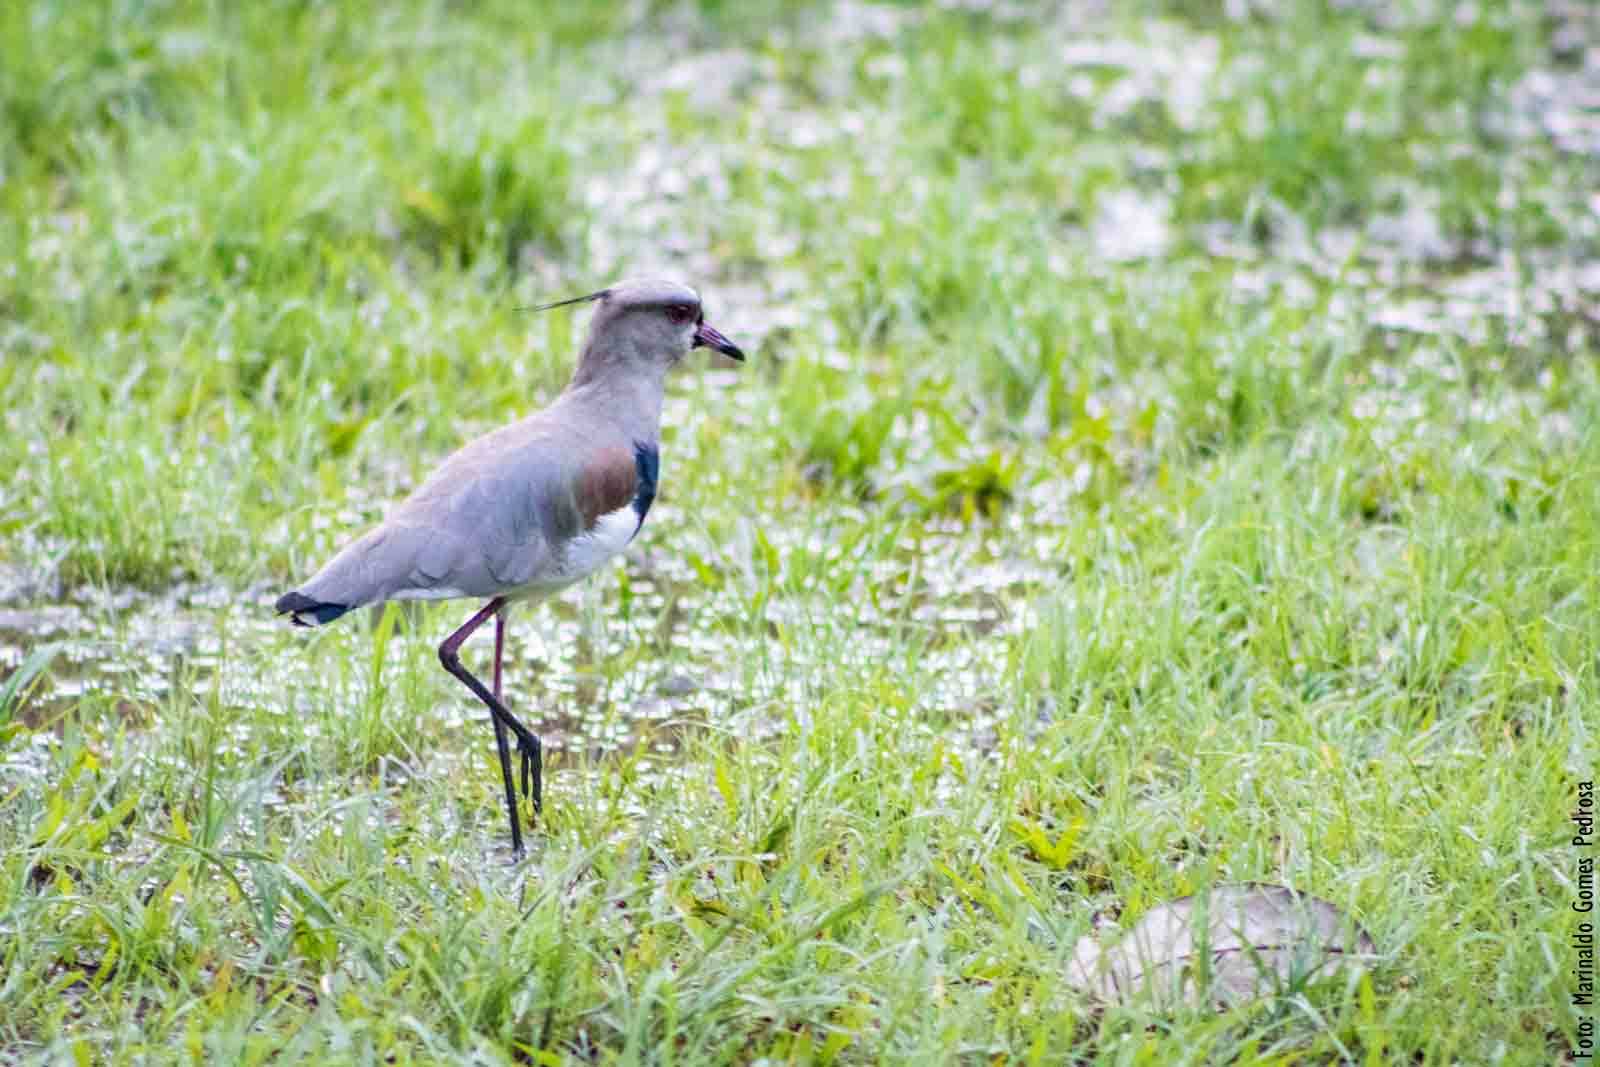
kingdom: Animalia
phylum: Chordata
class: Aves
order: Charadriiformes
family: Charadriidae
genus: Vanellus
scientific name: Vanellus chilensis
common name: Southern lapwing
